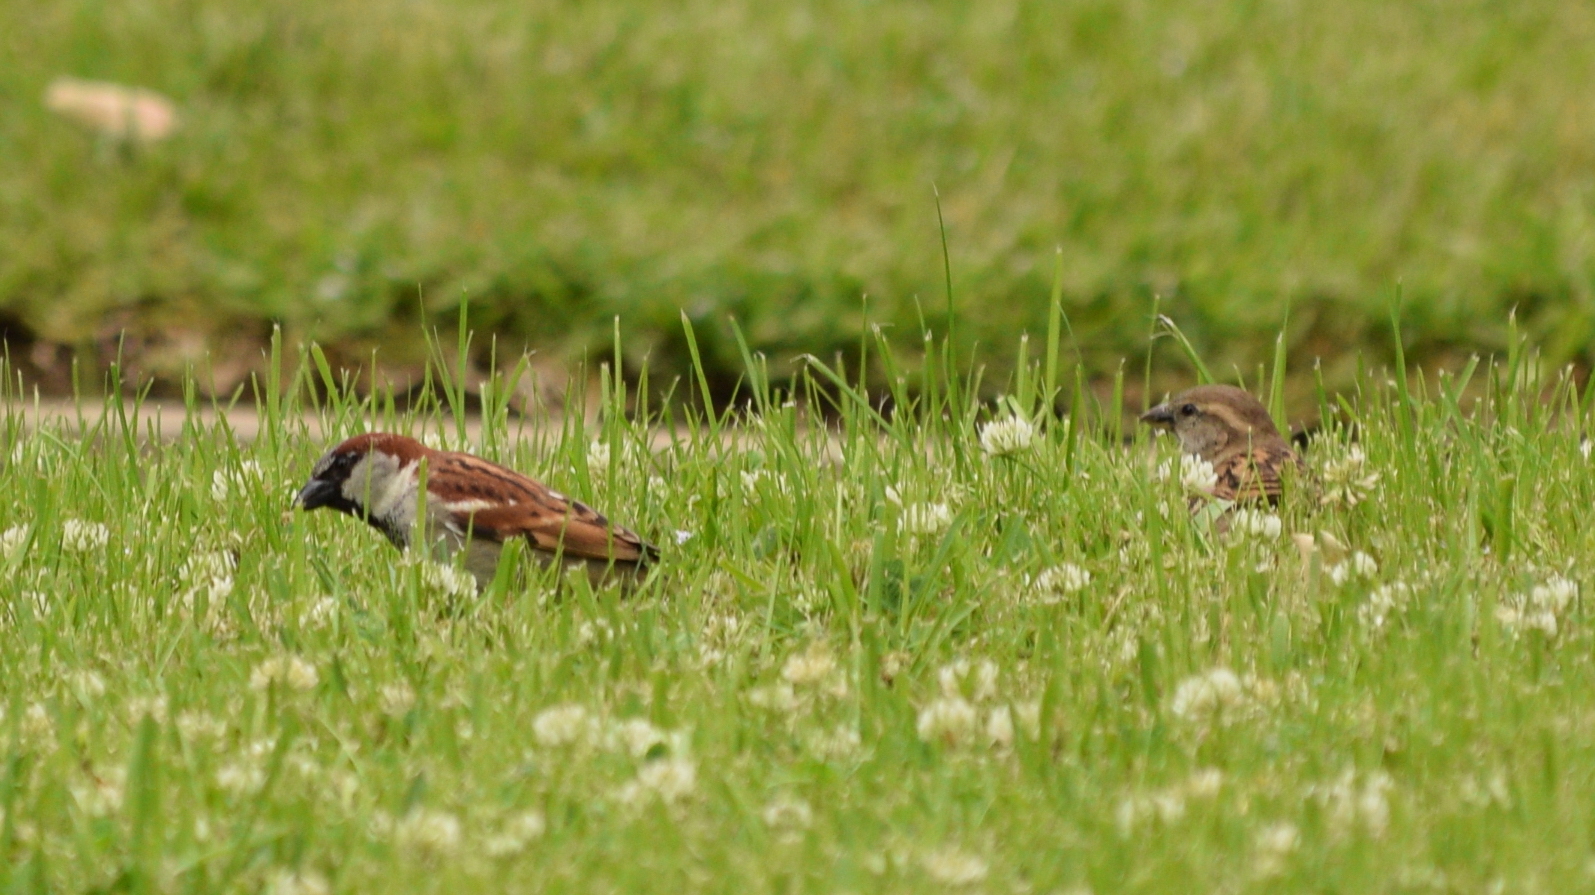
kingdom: Animalia
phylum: Chordata
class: Aves
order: Passeriformes
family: Passeridae
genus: Passer
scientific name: Passer domesticus
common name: House sparrow
